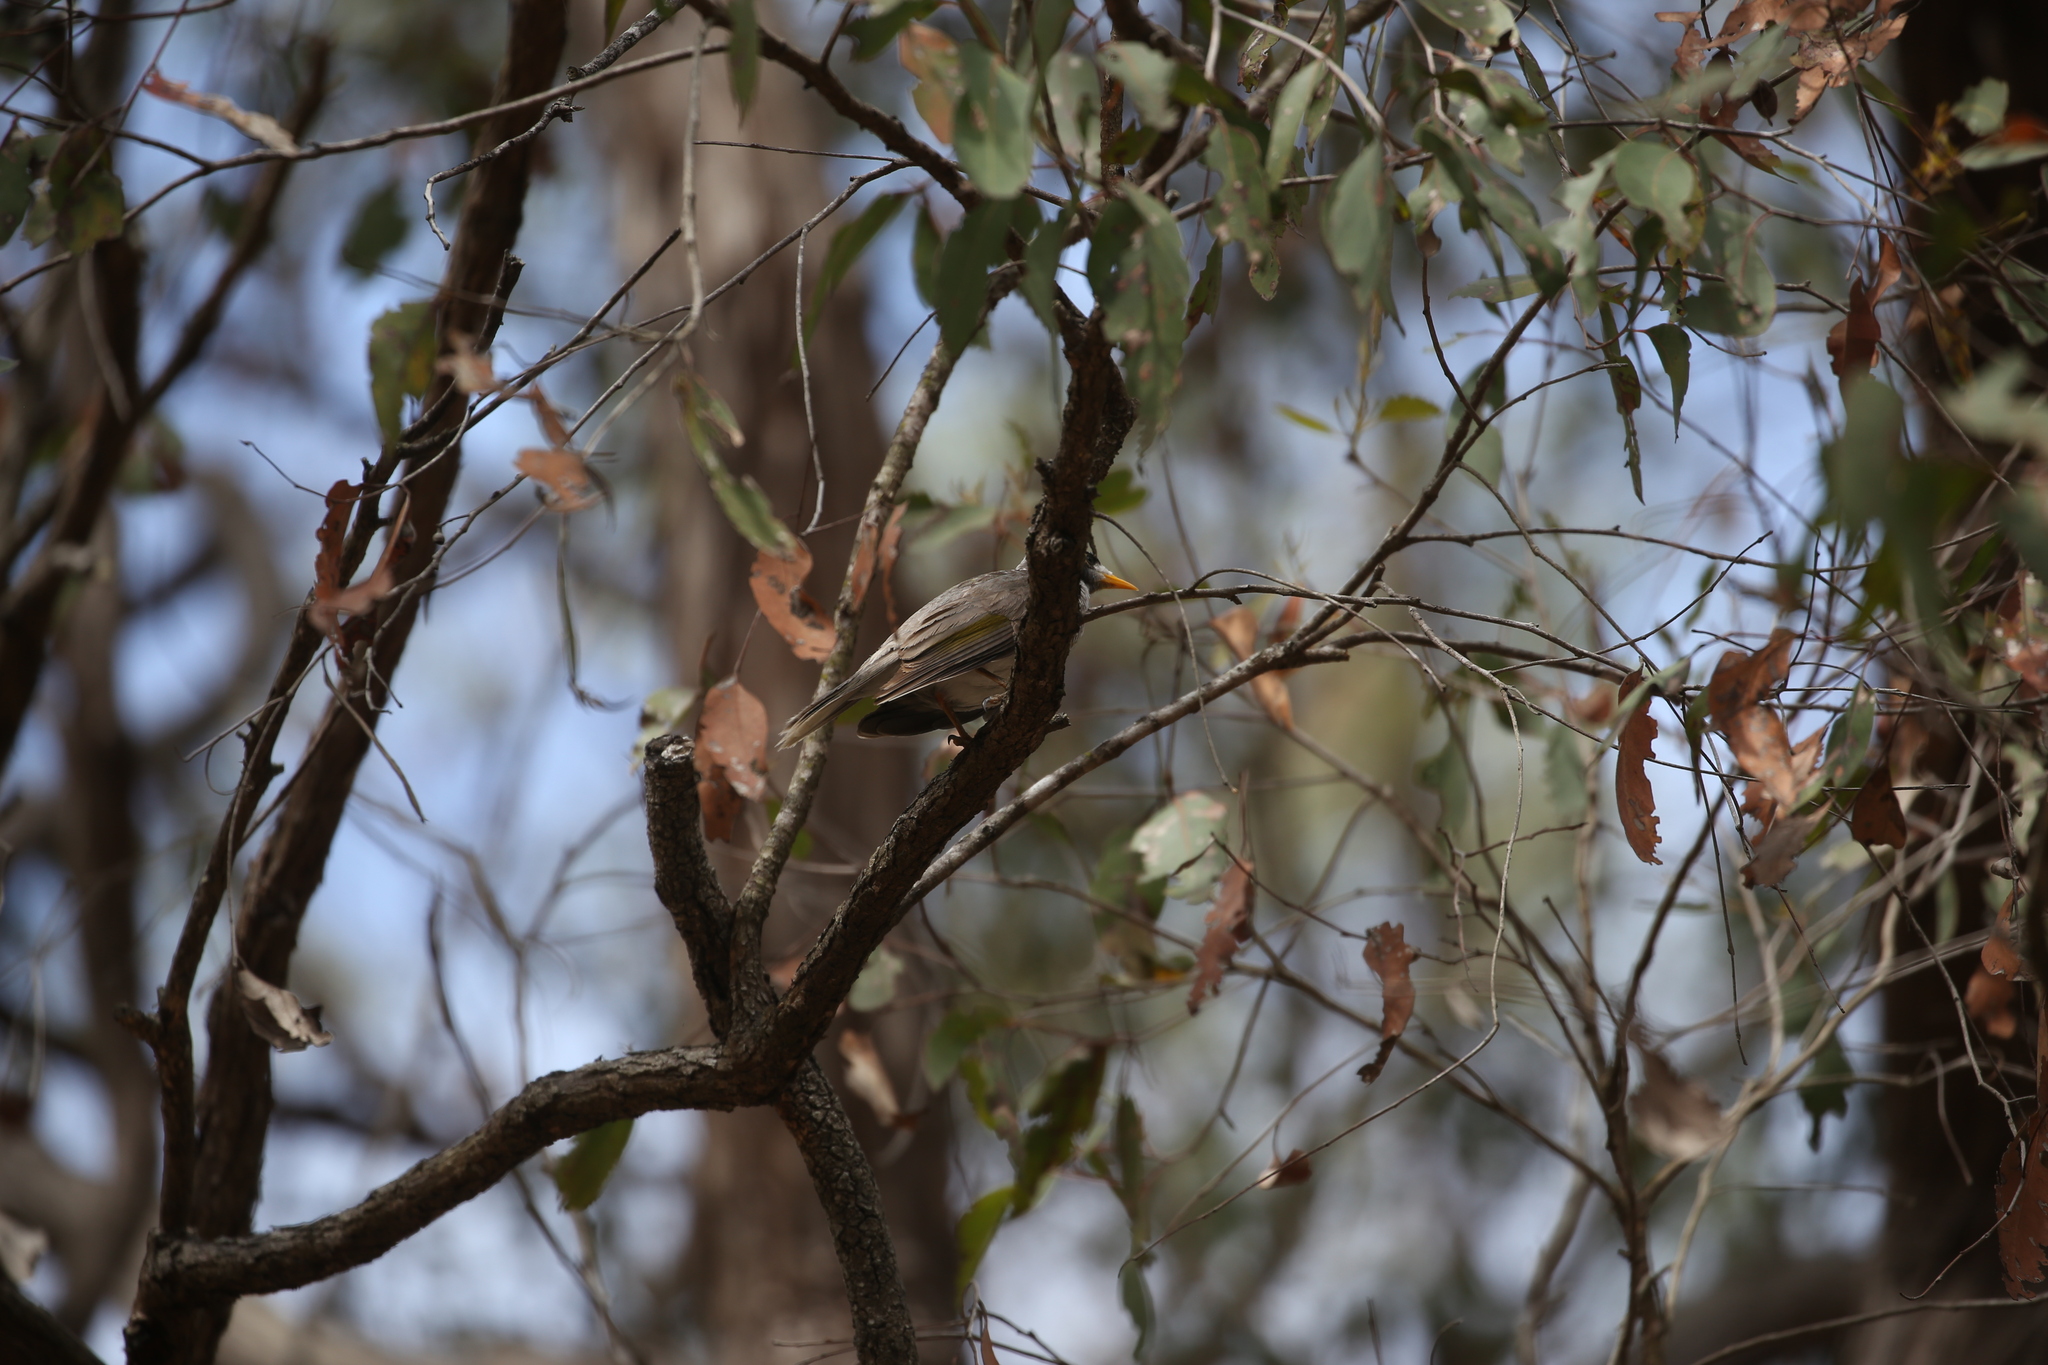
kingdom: Animalia
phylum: Chordata
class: Aves
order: Passeriformes
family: Meliphagidae
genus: Manorina
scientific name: Manorina melanocephala
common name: Noisy miner
